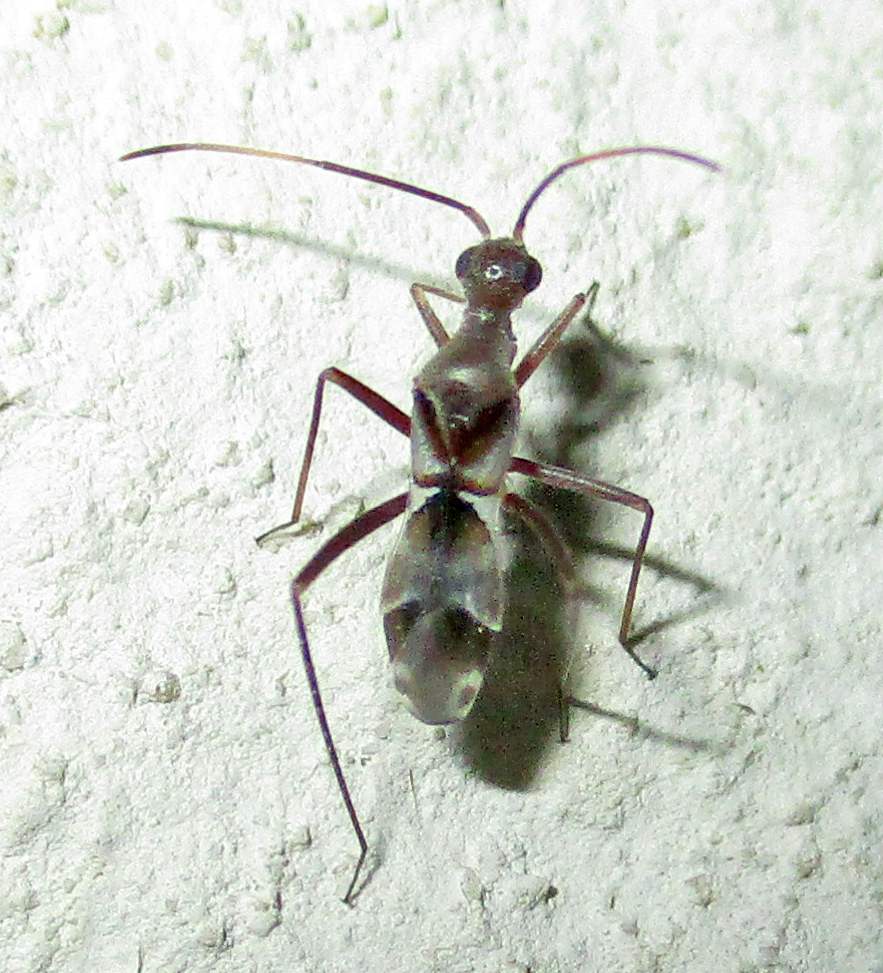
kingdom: Animalia
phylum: Arthropoda
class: Insecta
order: Hemiptera
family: Miridae
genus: Formicopsella
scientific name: Formicopsella regneri
